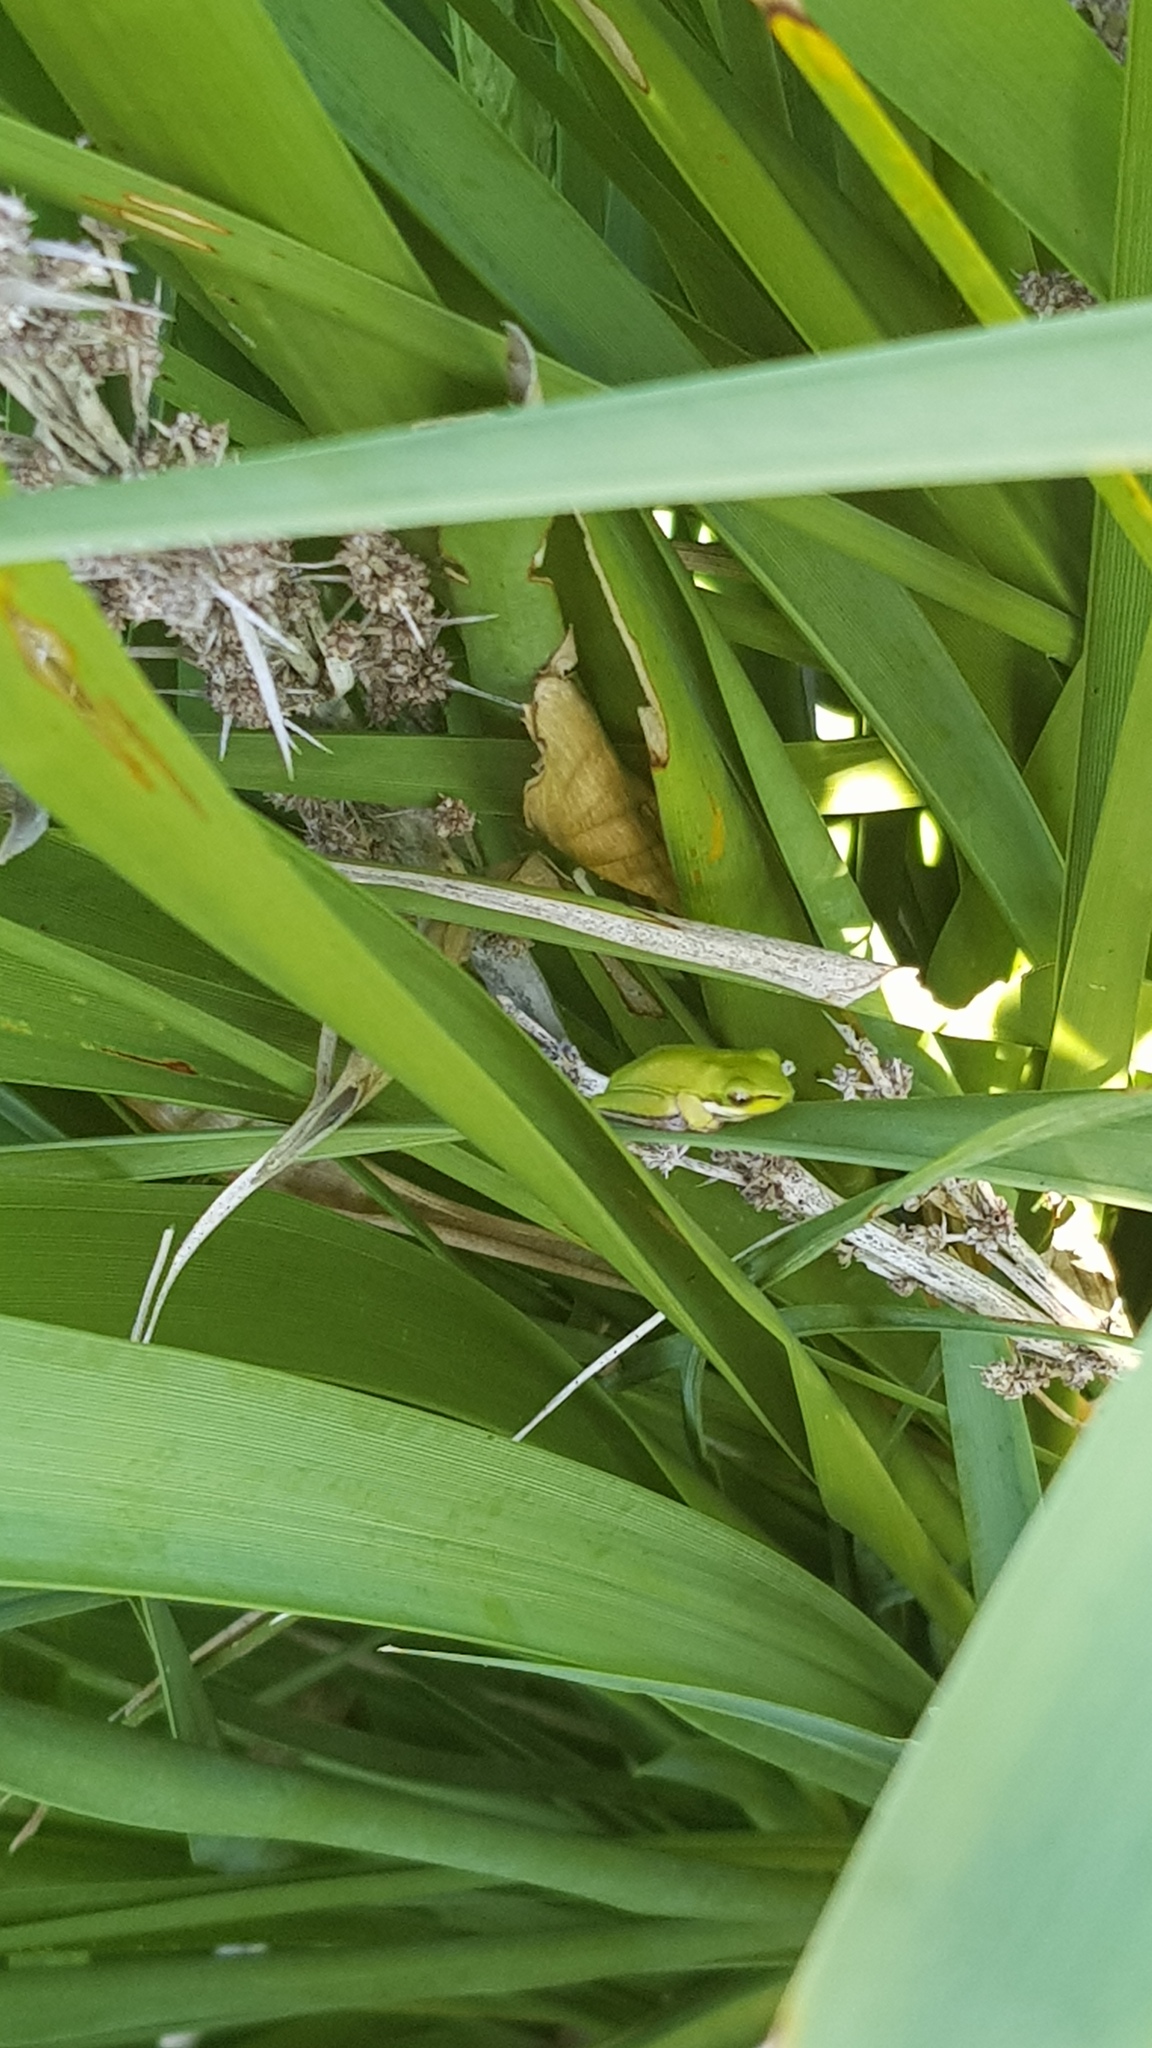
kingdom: Animalia
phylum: Chordata
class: Amphibia
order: Anura
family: Pelodryadidae
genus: Litoria
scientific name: Litoria fallax
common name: Eastern dwarf treefrog
